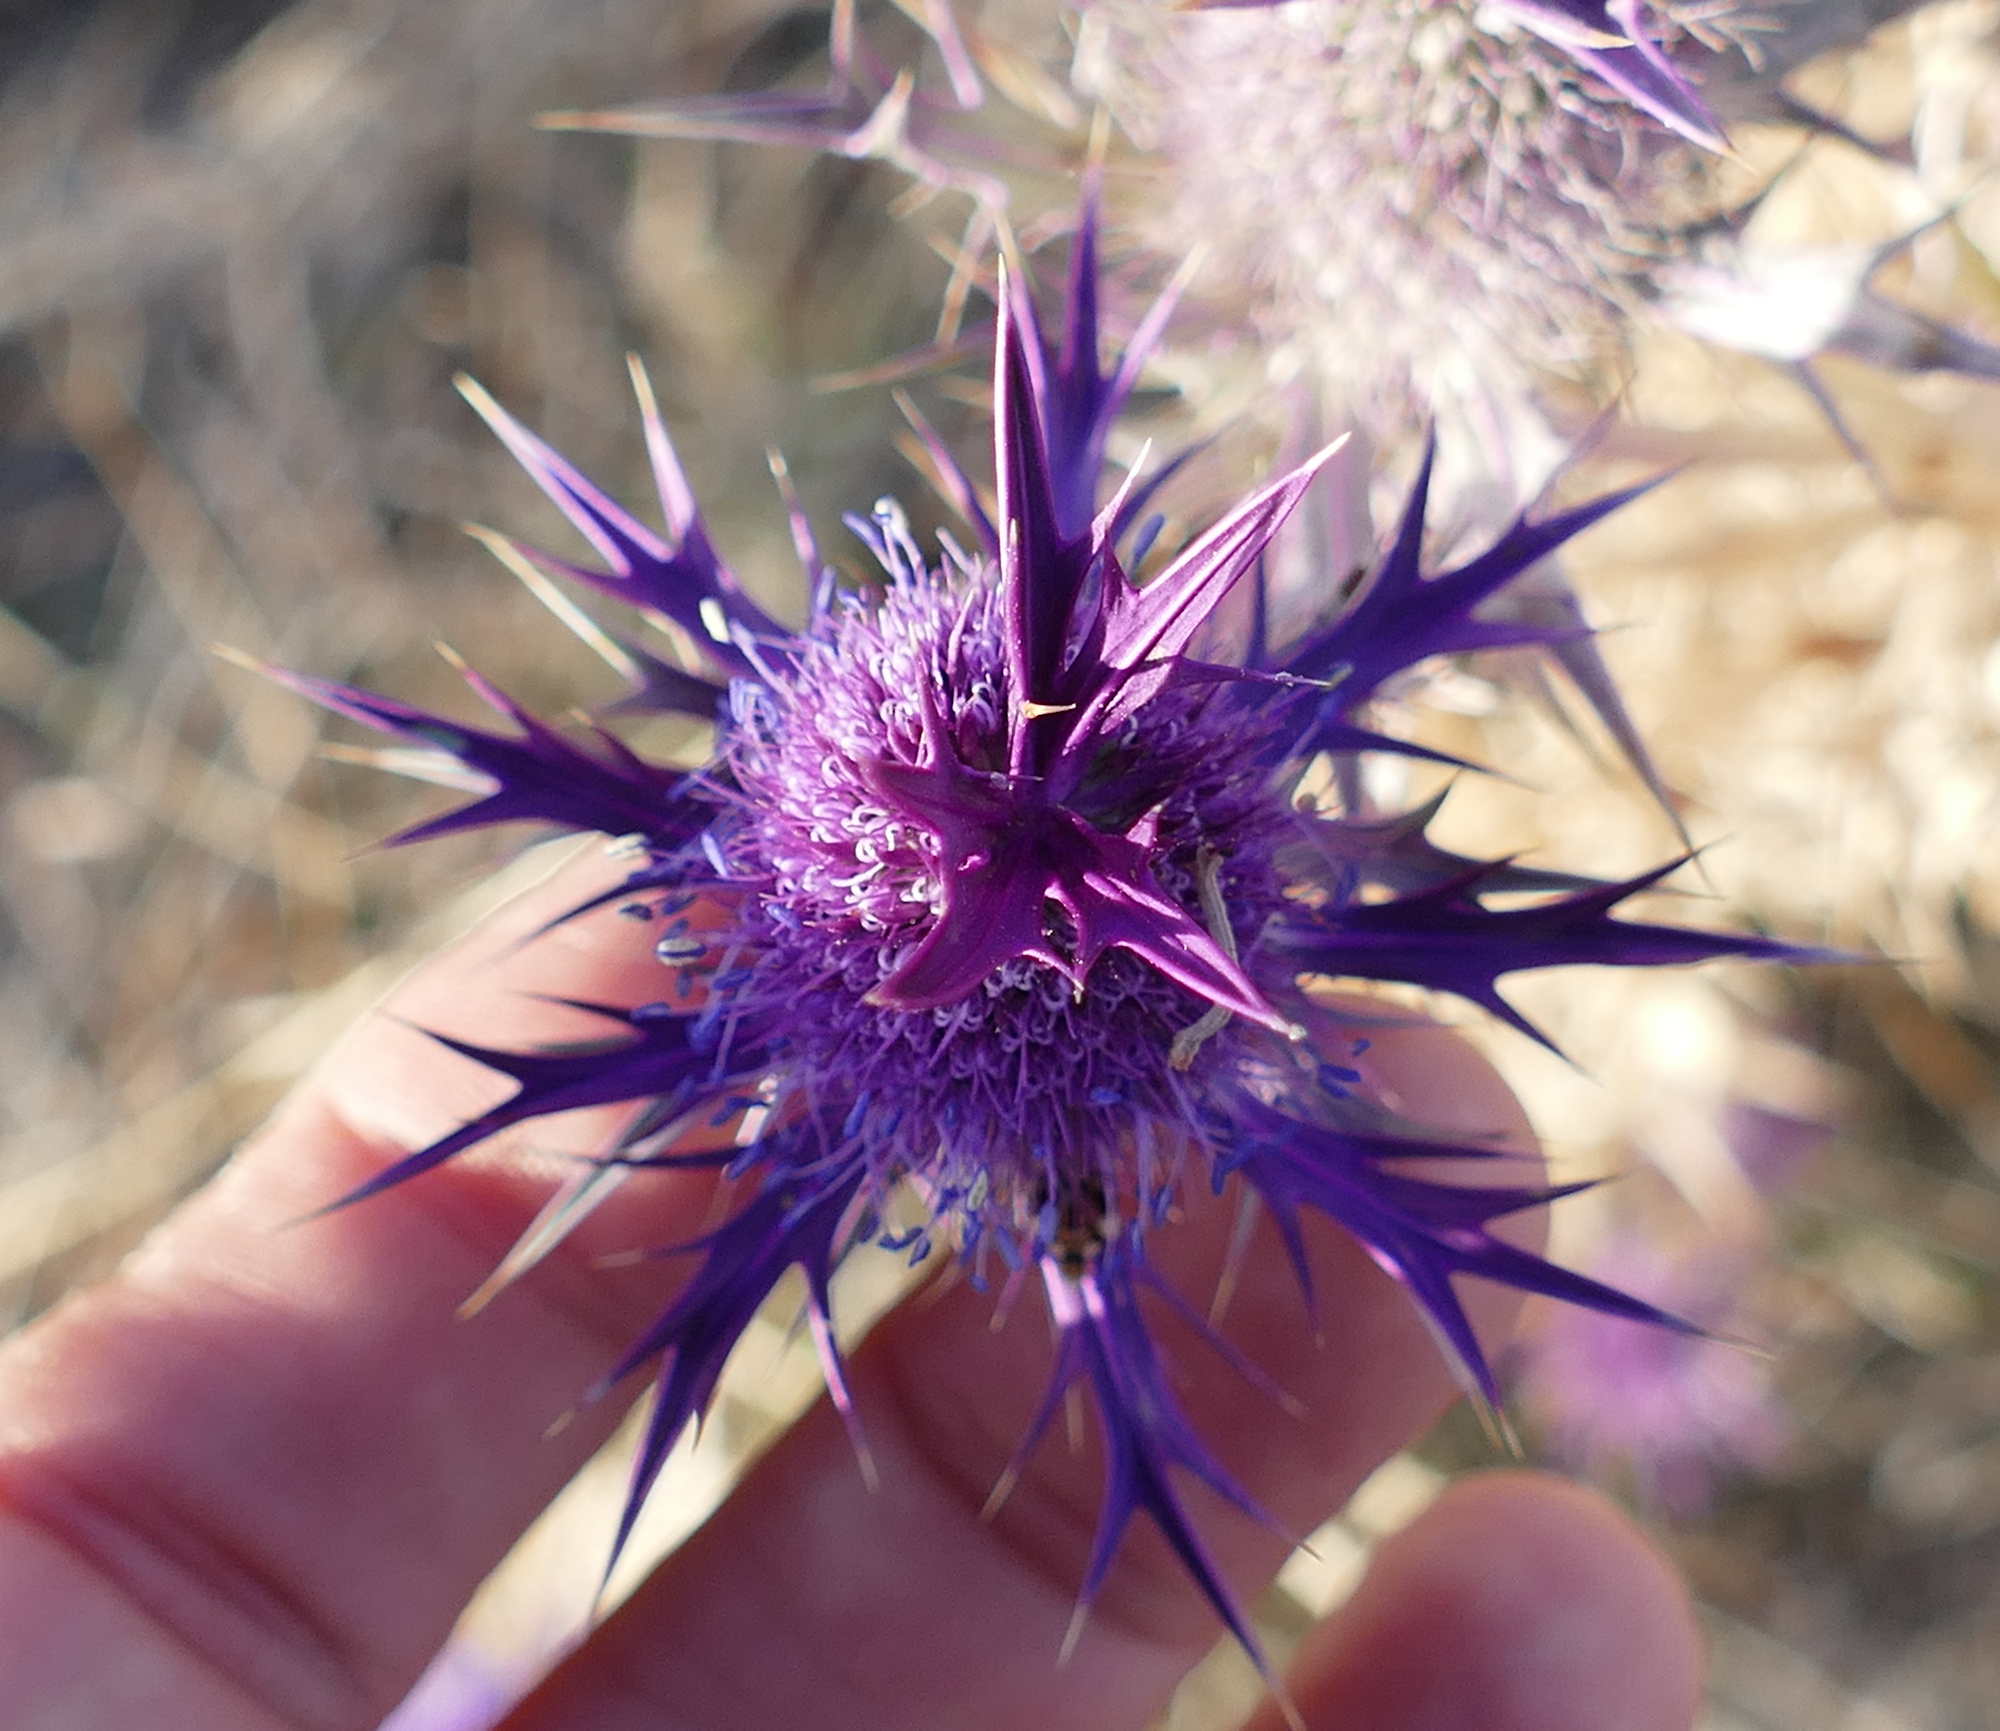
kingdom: Plantae
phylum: Tracheophyta
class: Magnoliopsida
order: Apiales
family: Apiaceae
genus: Eryngium
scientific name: Eryngium leavenworthii
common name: Leavenworth's eryngo
